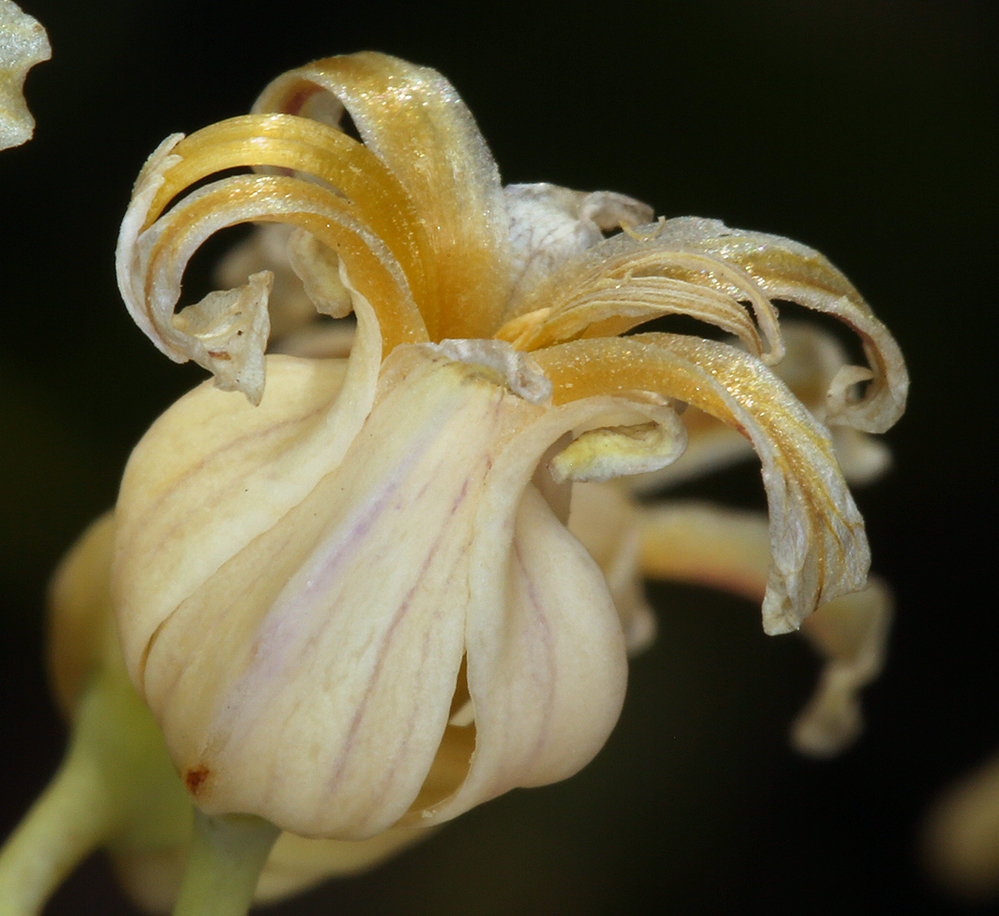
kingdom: Plantae
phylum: Tracheophyta
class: Magnoliopsida
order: Brassicales
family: Brassicaceae
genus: Streptanthus
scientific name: Streptanthus tortuosus
